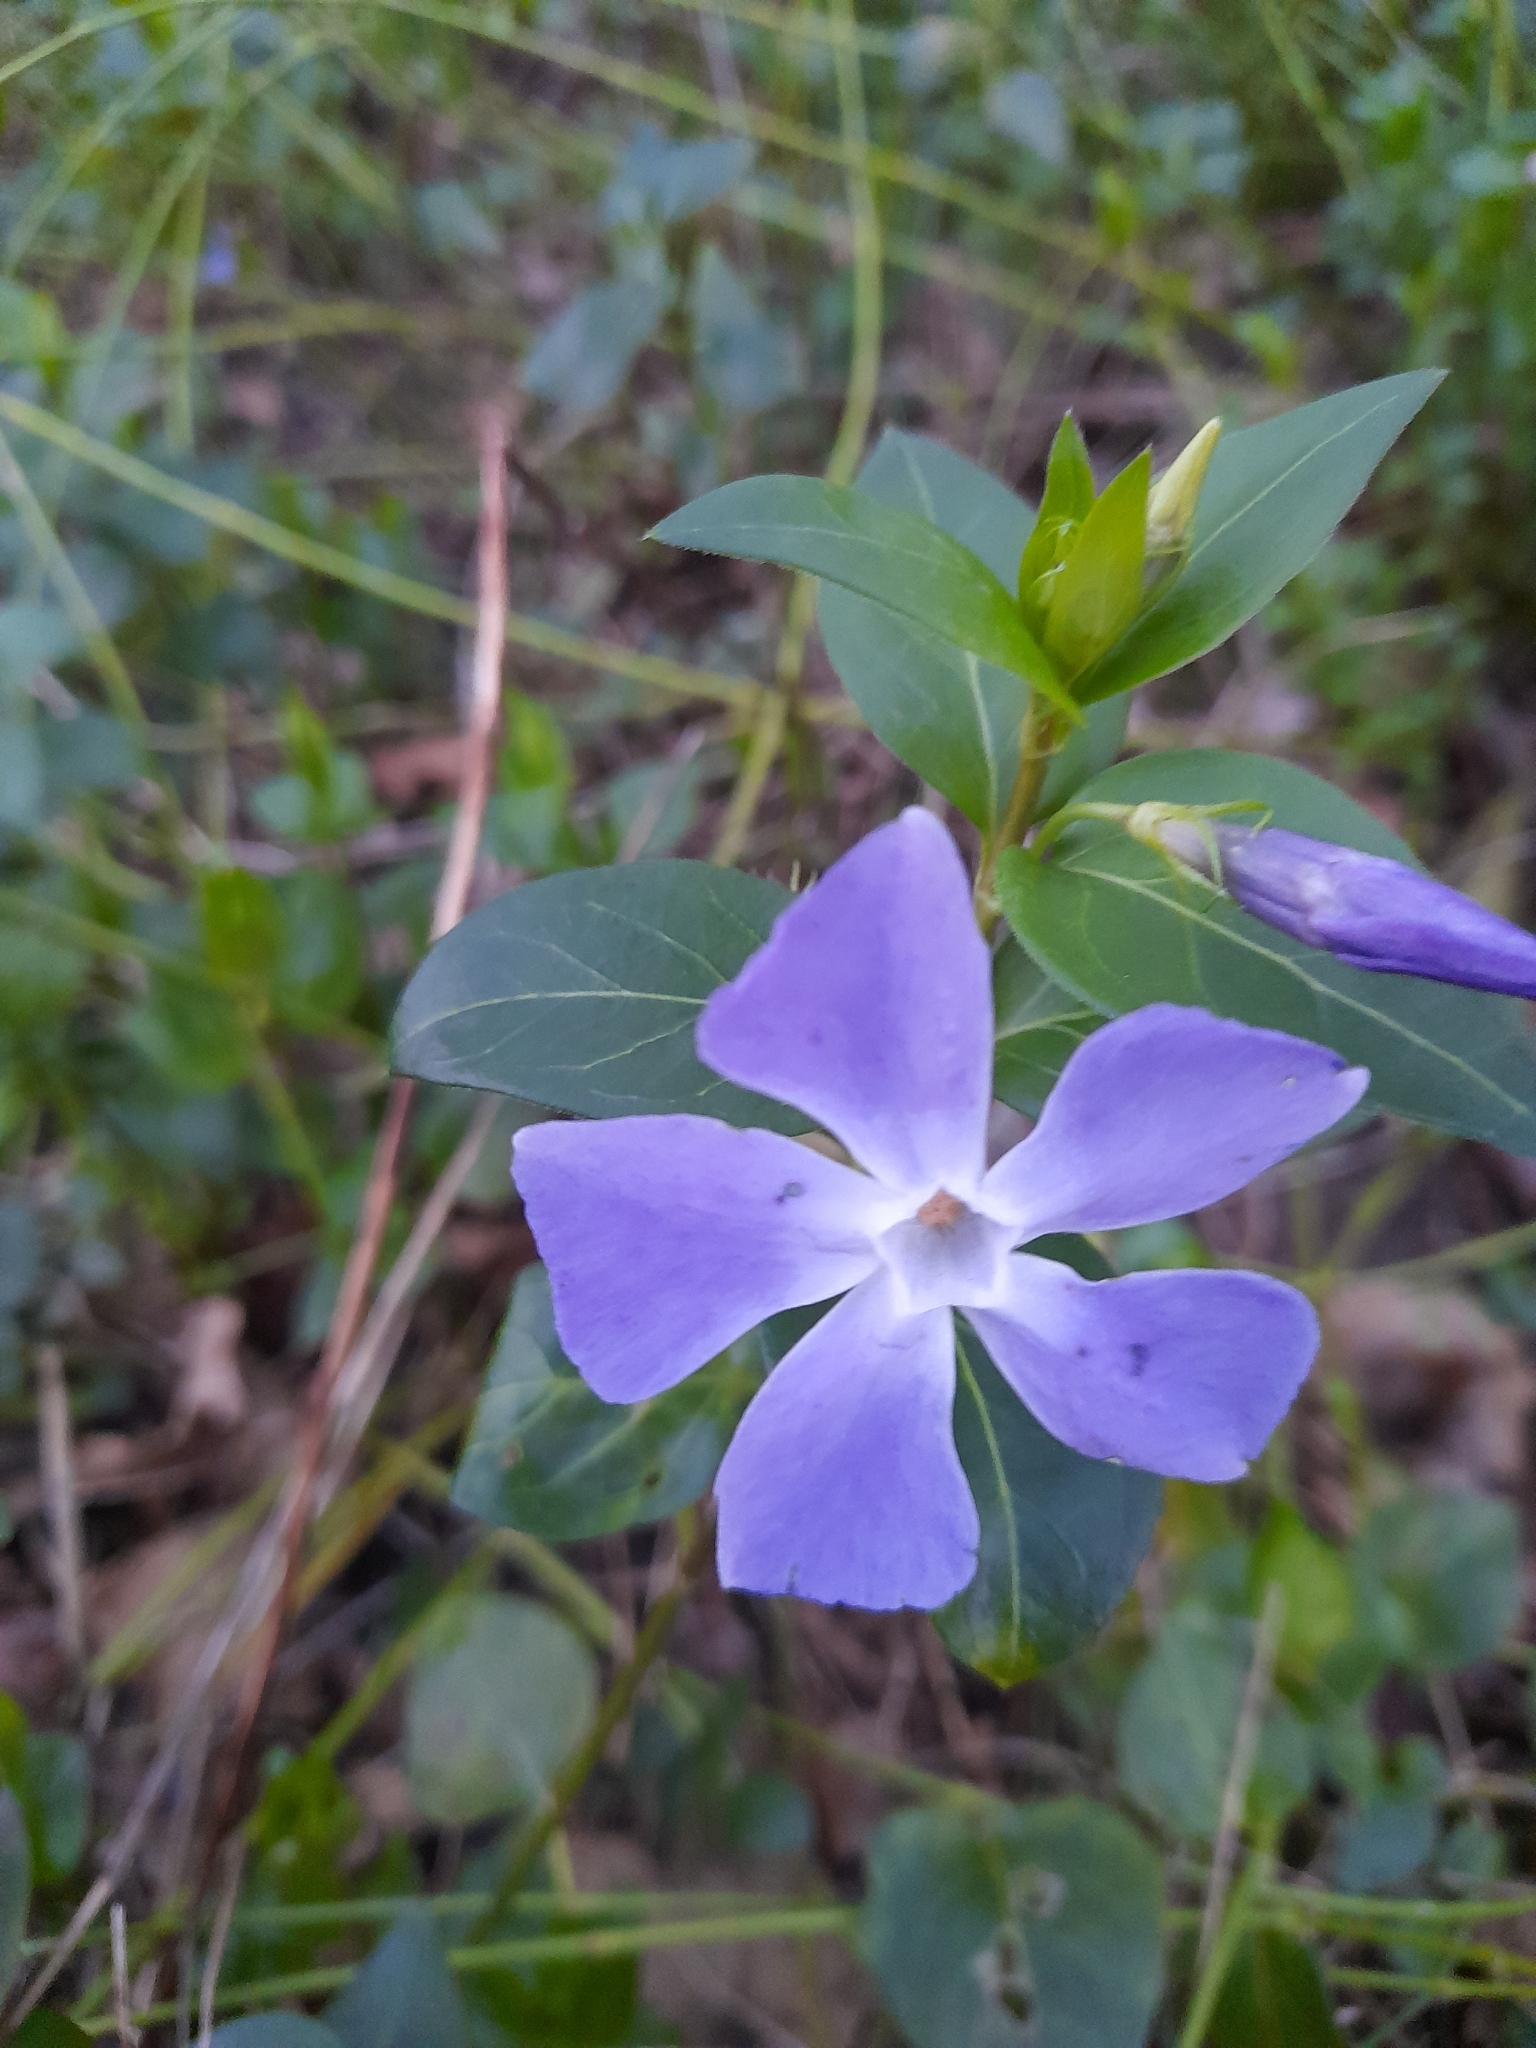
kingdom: Plantae
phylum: Tracheophyta
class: Magnoliopsida
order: Gentianales
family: Apocynaceae
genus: Vinca
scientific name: Vinca major
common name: Greater periwinkle
